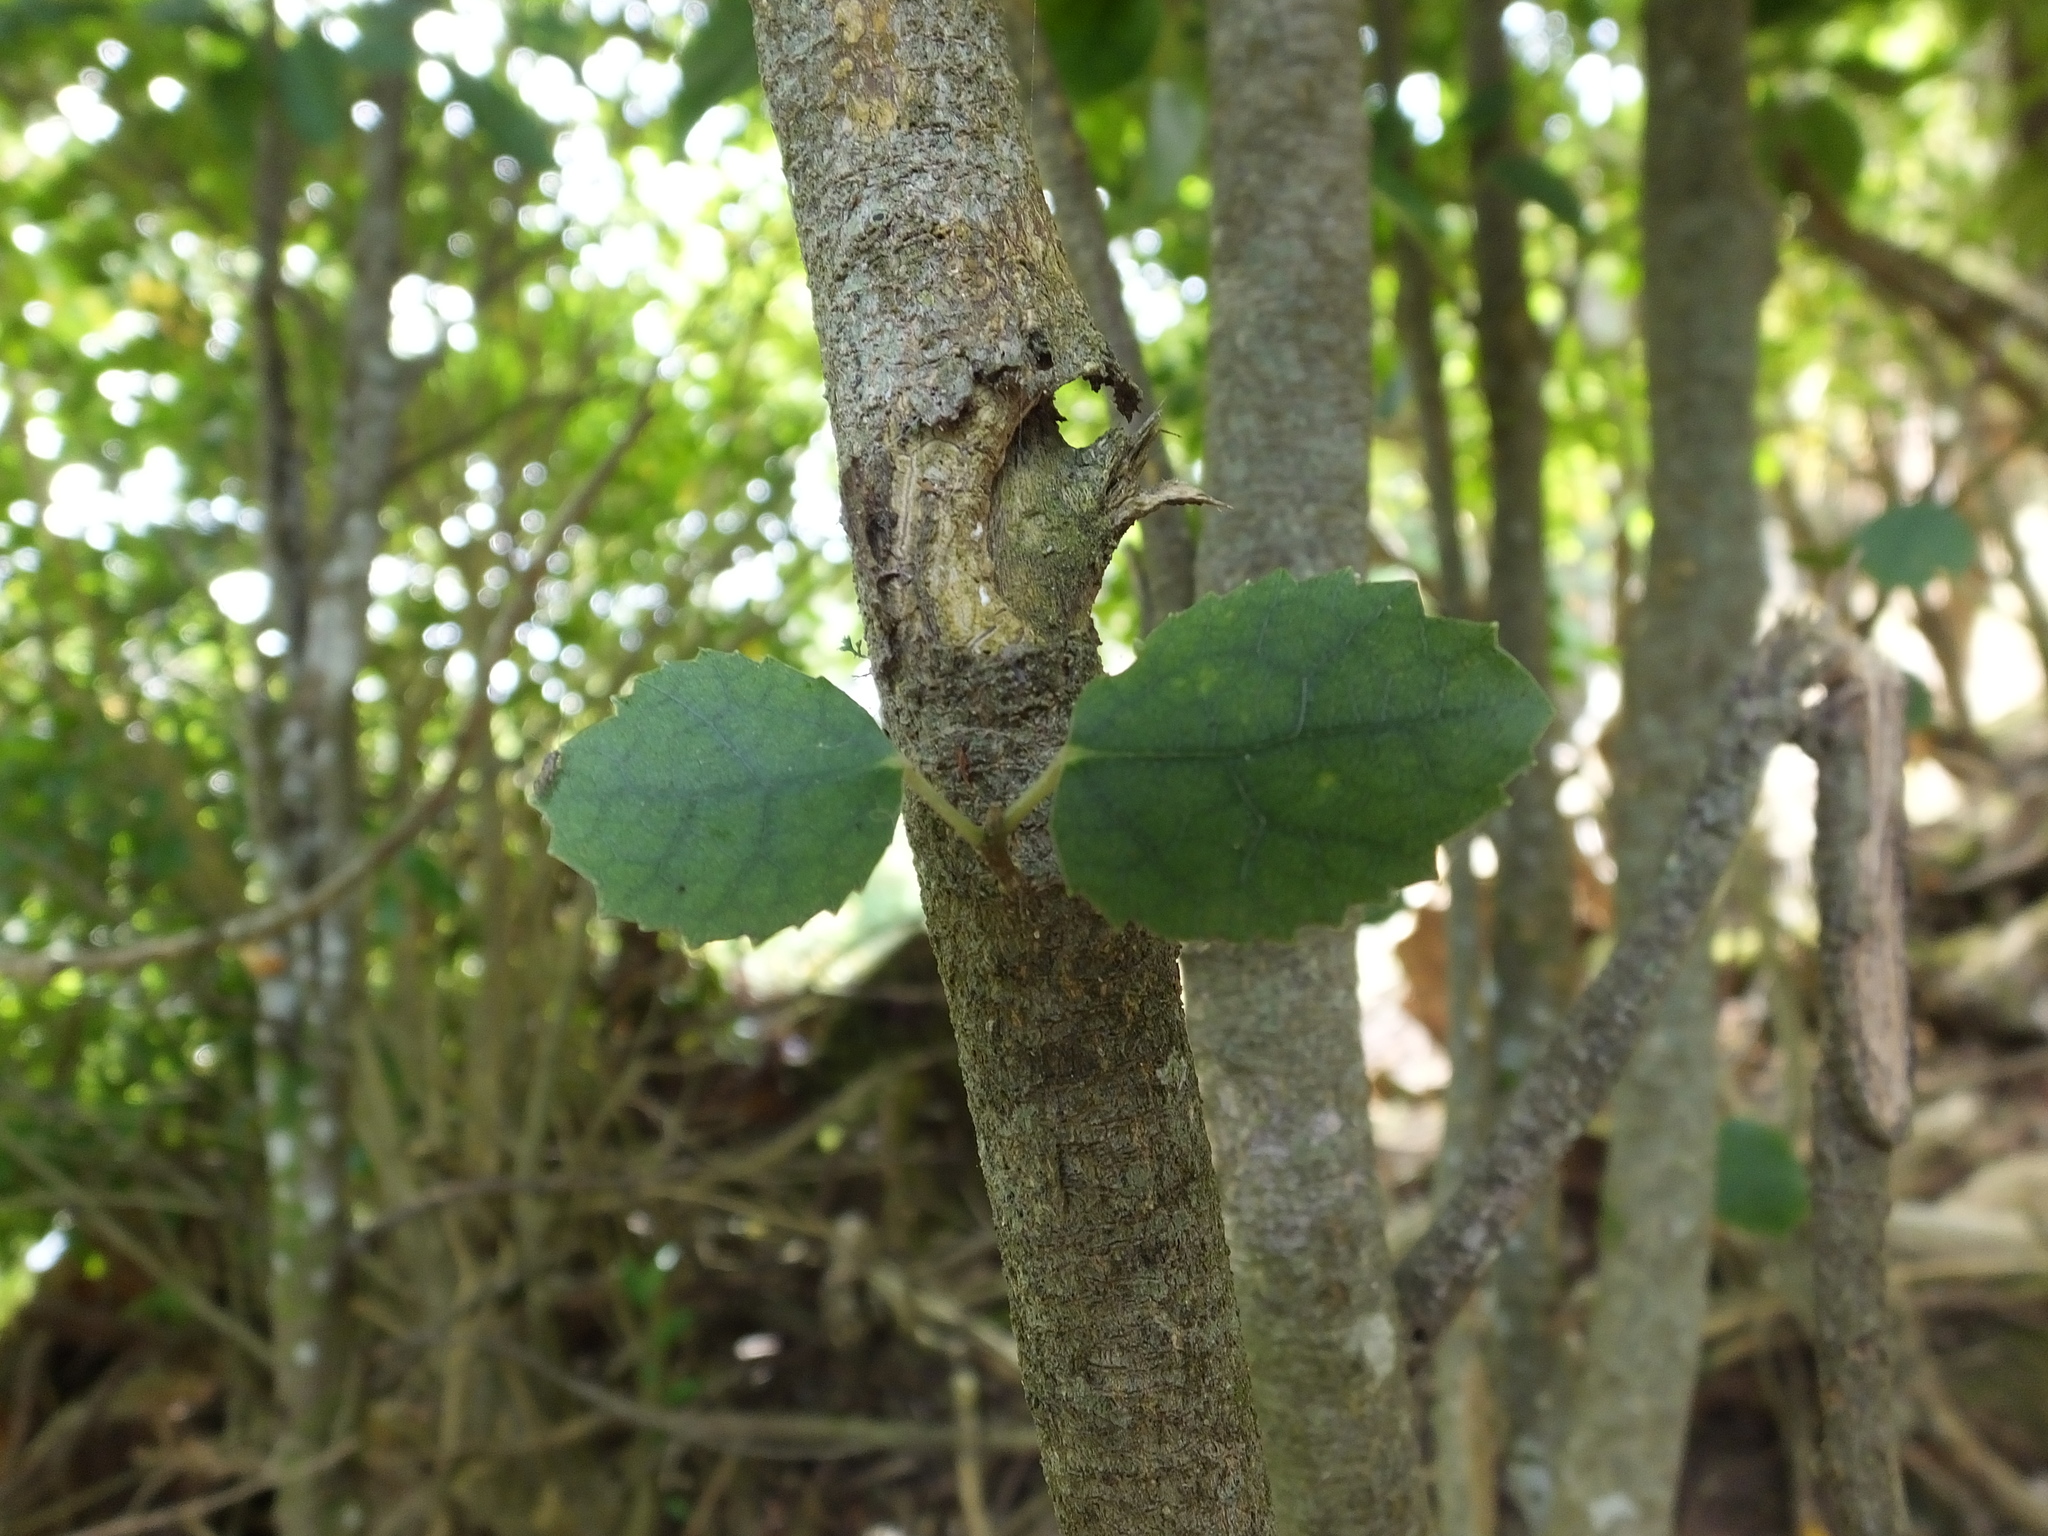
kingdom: Plantae
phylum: Tracheophyta
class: Magnoliopsida
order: Malvales
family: Malvaceae
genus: Hoheria
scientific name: Hoheria populnea
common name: Lacebark
